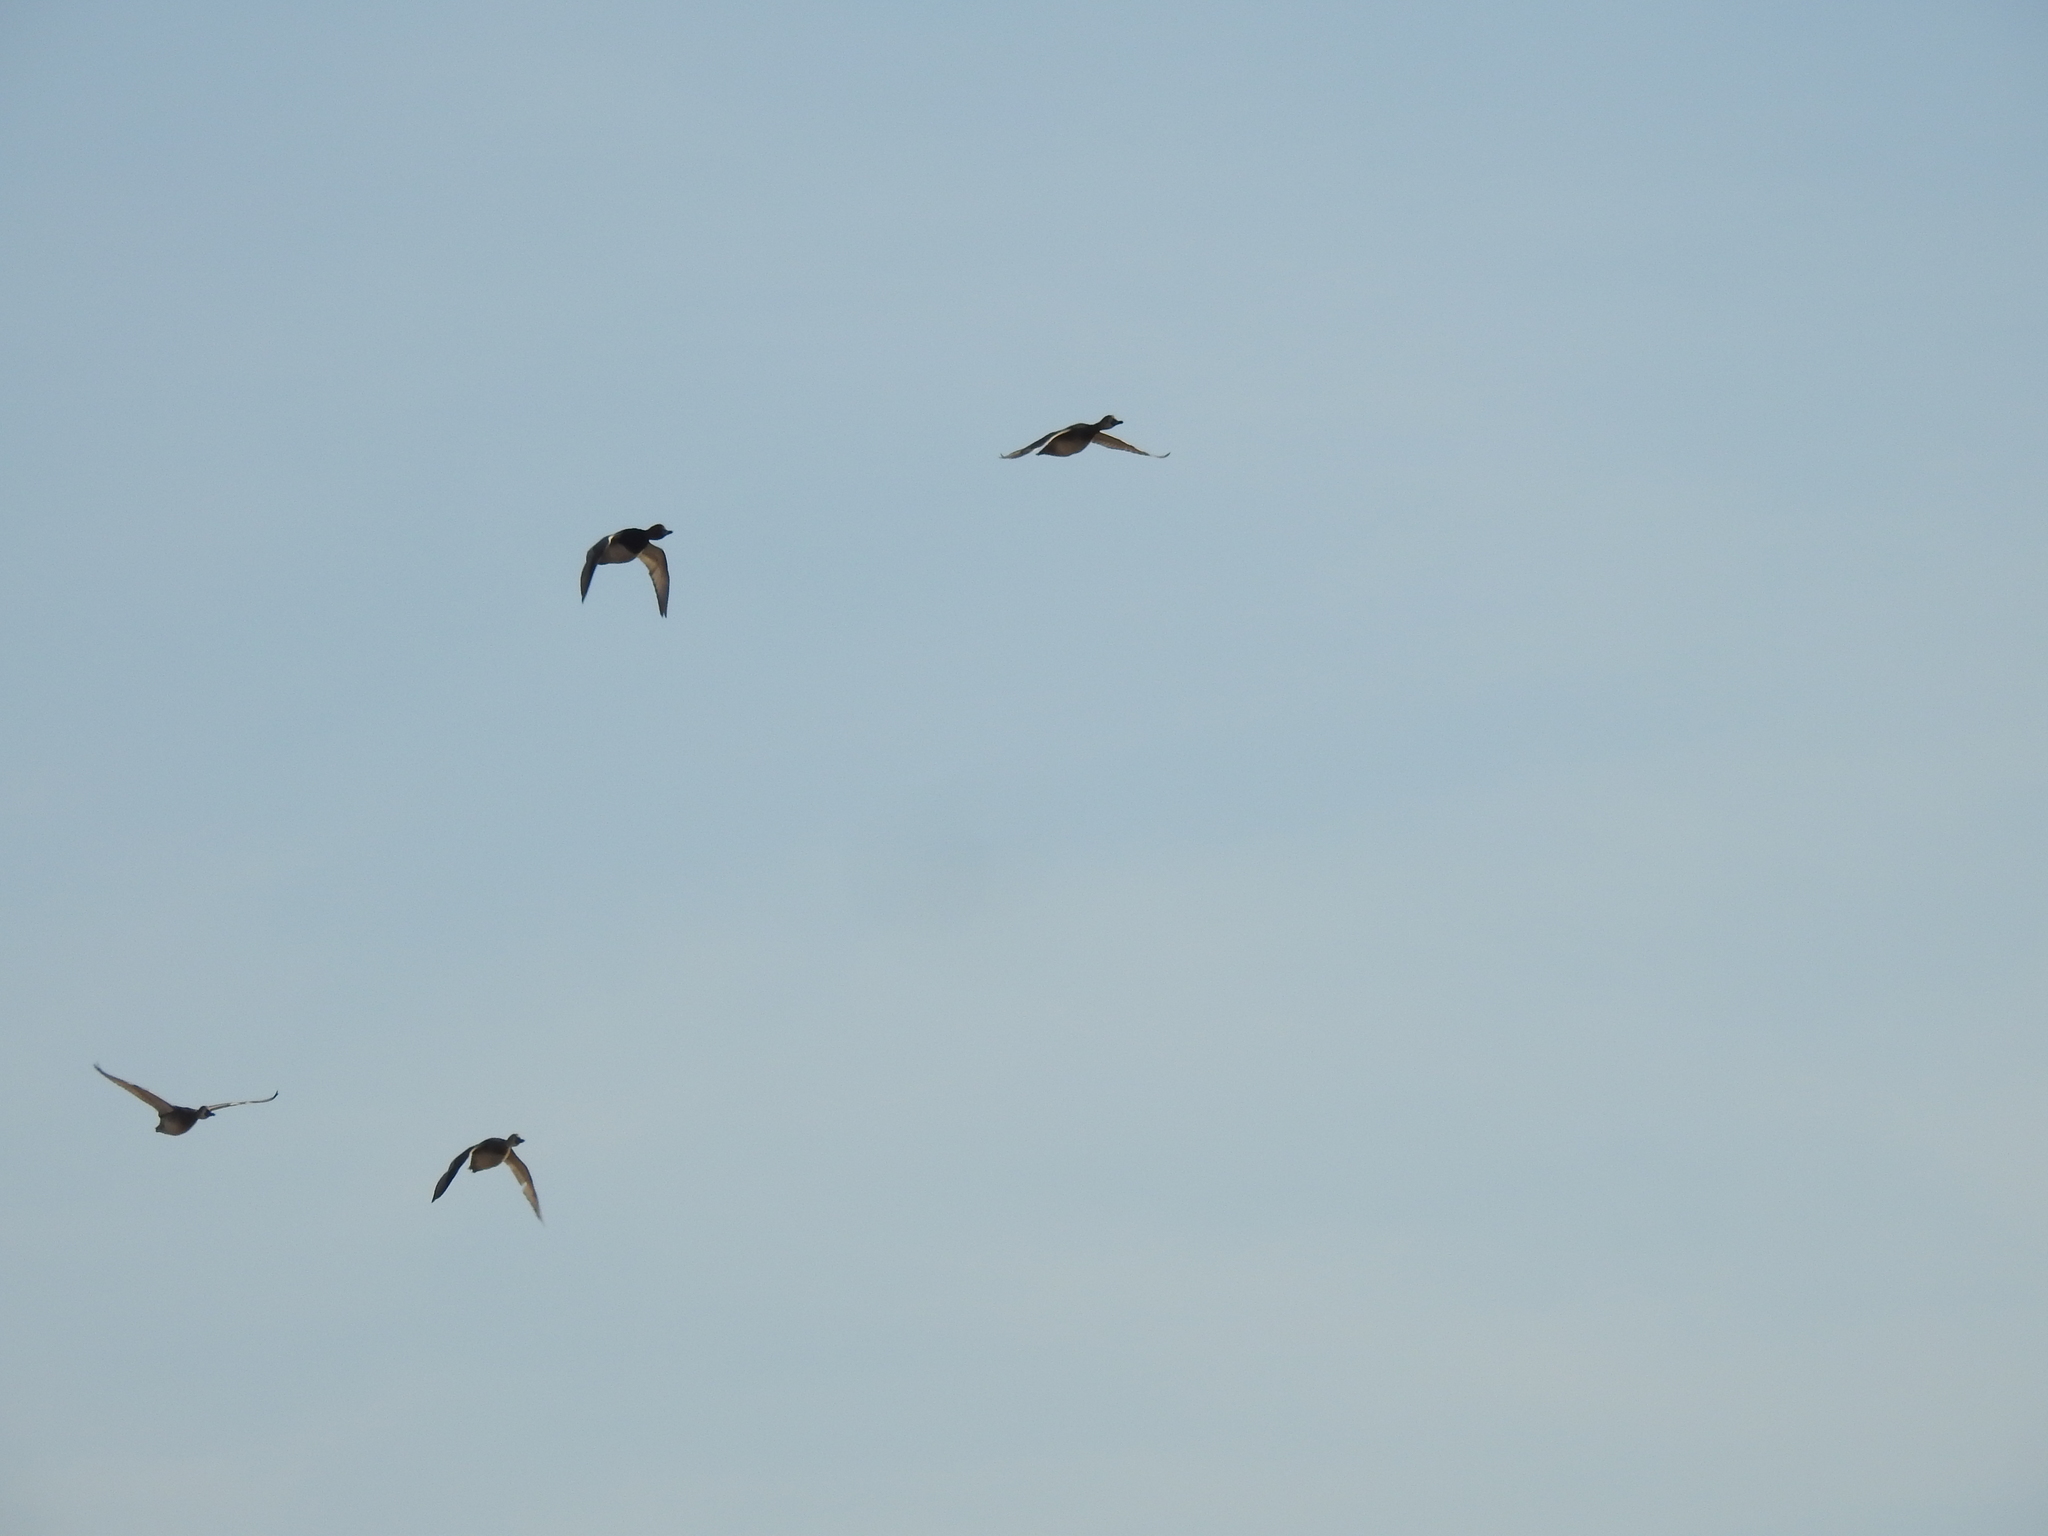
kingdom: Animalia
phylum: Chordata
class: Aves
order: Anseriformes
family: Anatidae
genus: Aythya
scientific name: Aythya americana
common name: Redhead
